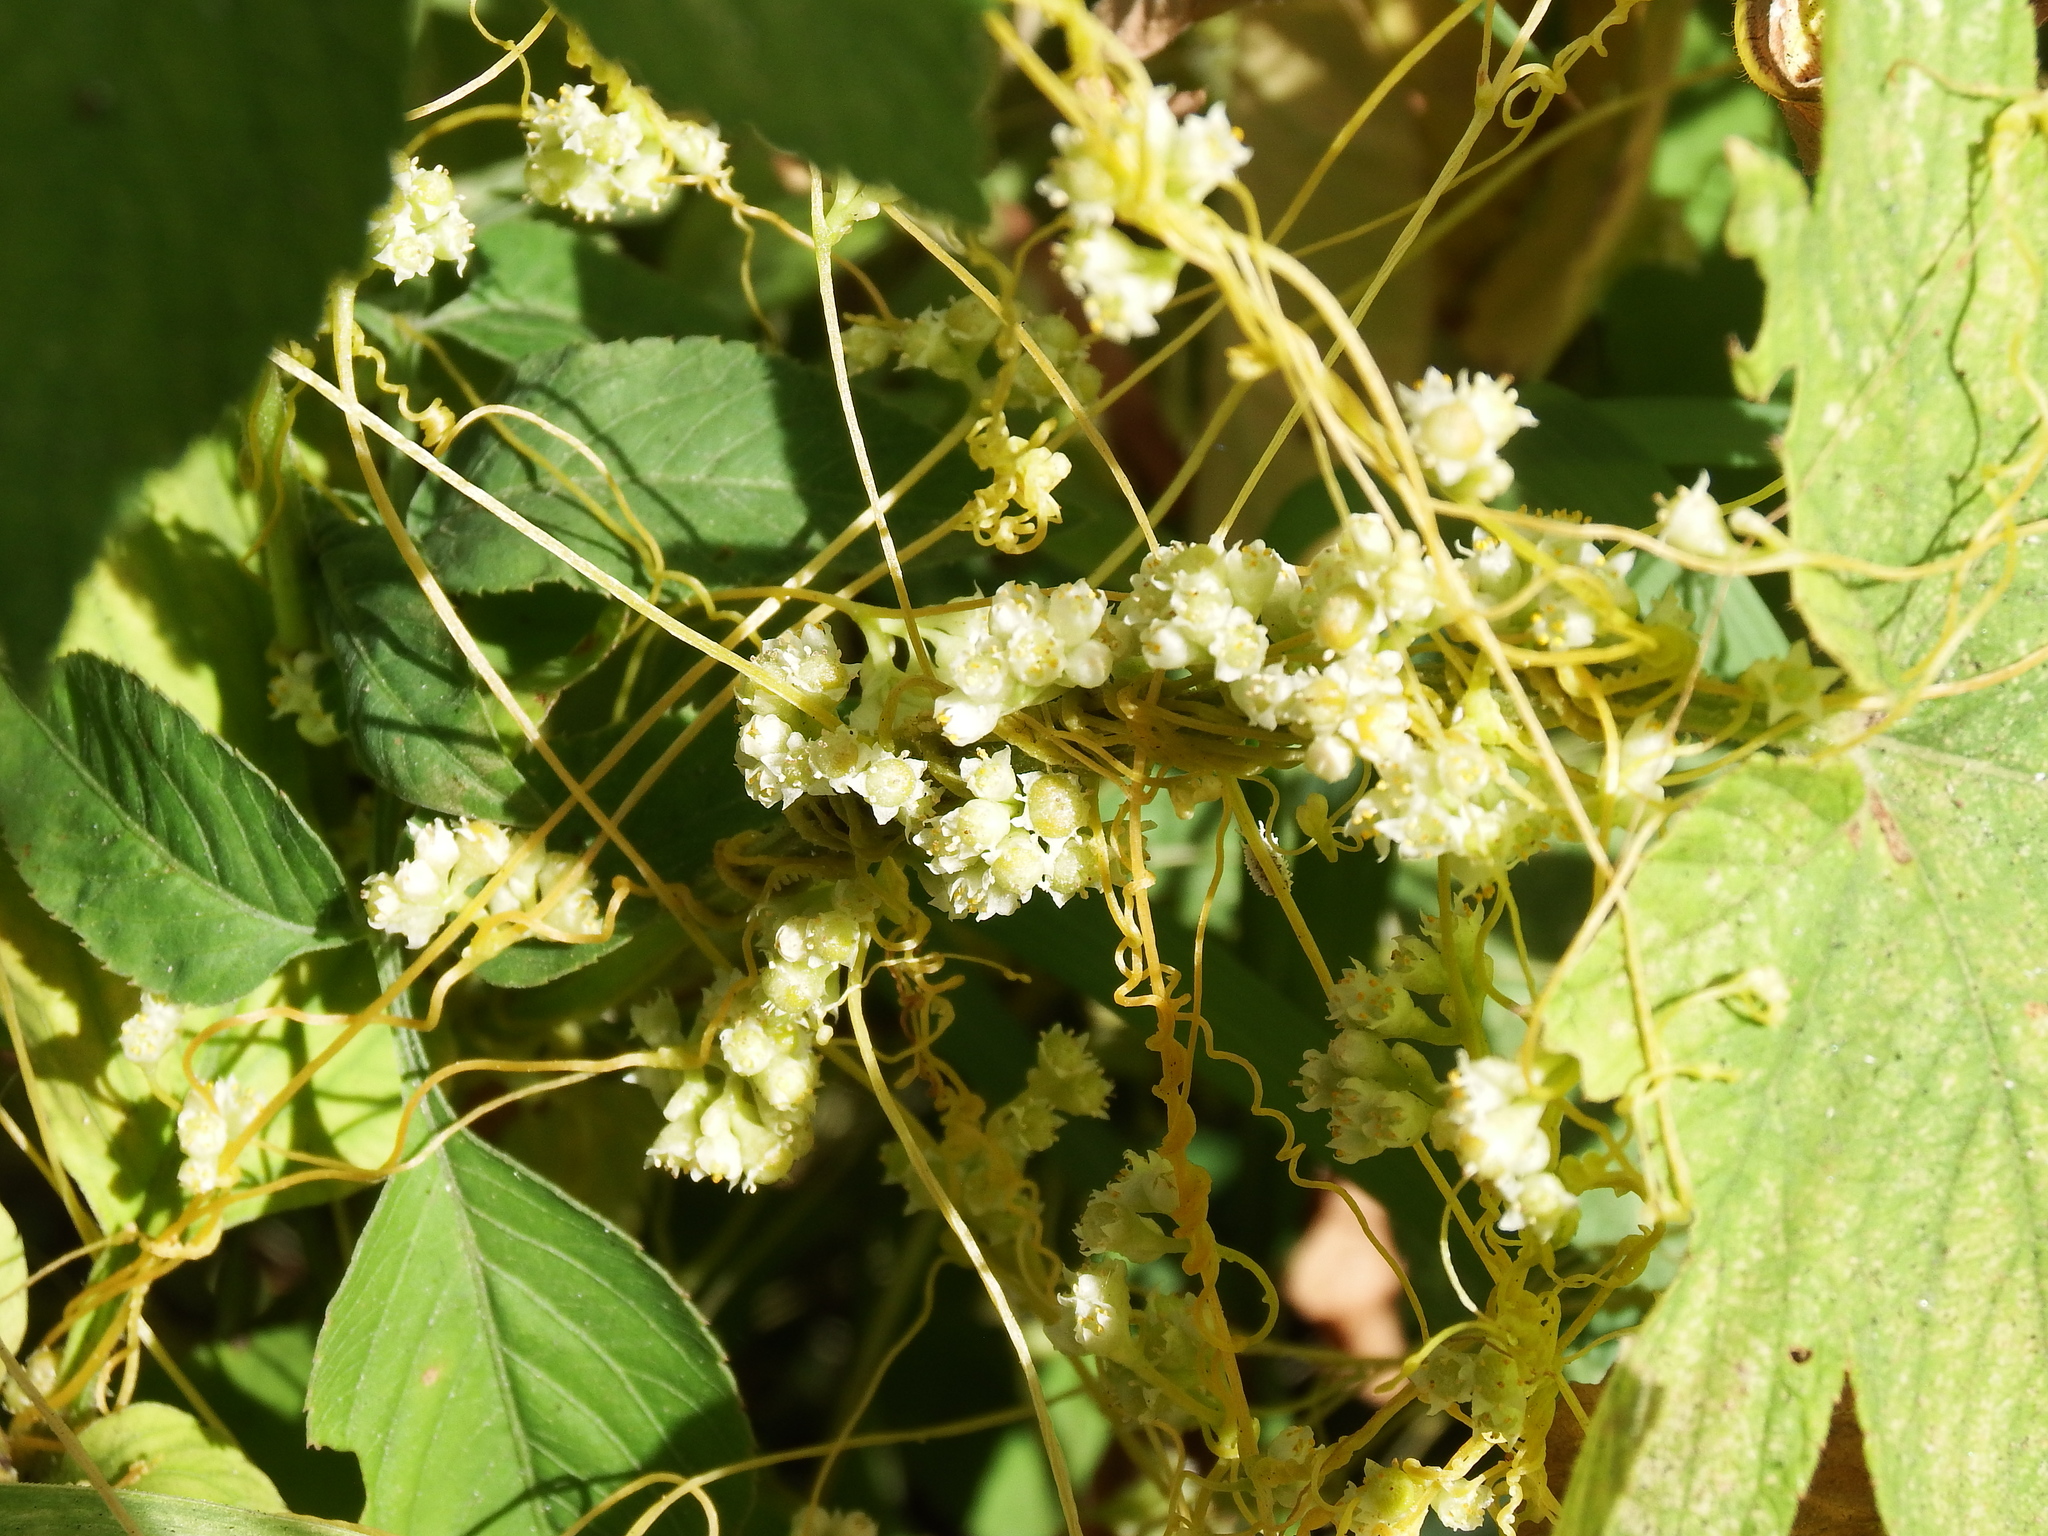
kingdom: Plantae
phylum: Tracheophyta
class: Magnoliopsida
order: Solanales
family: Convolvulaceae
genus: Cuscuta
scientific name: Cuscuta campestris
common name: Yellow dodder
